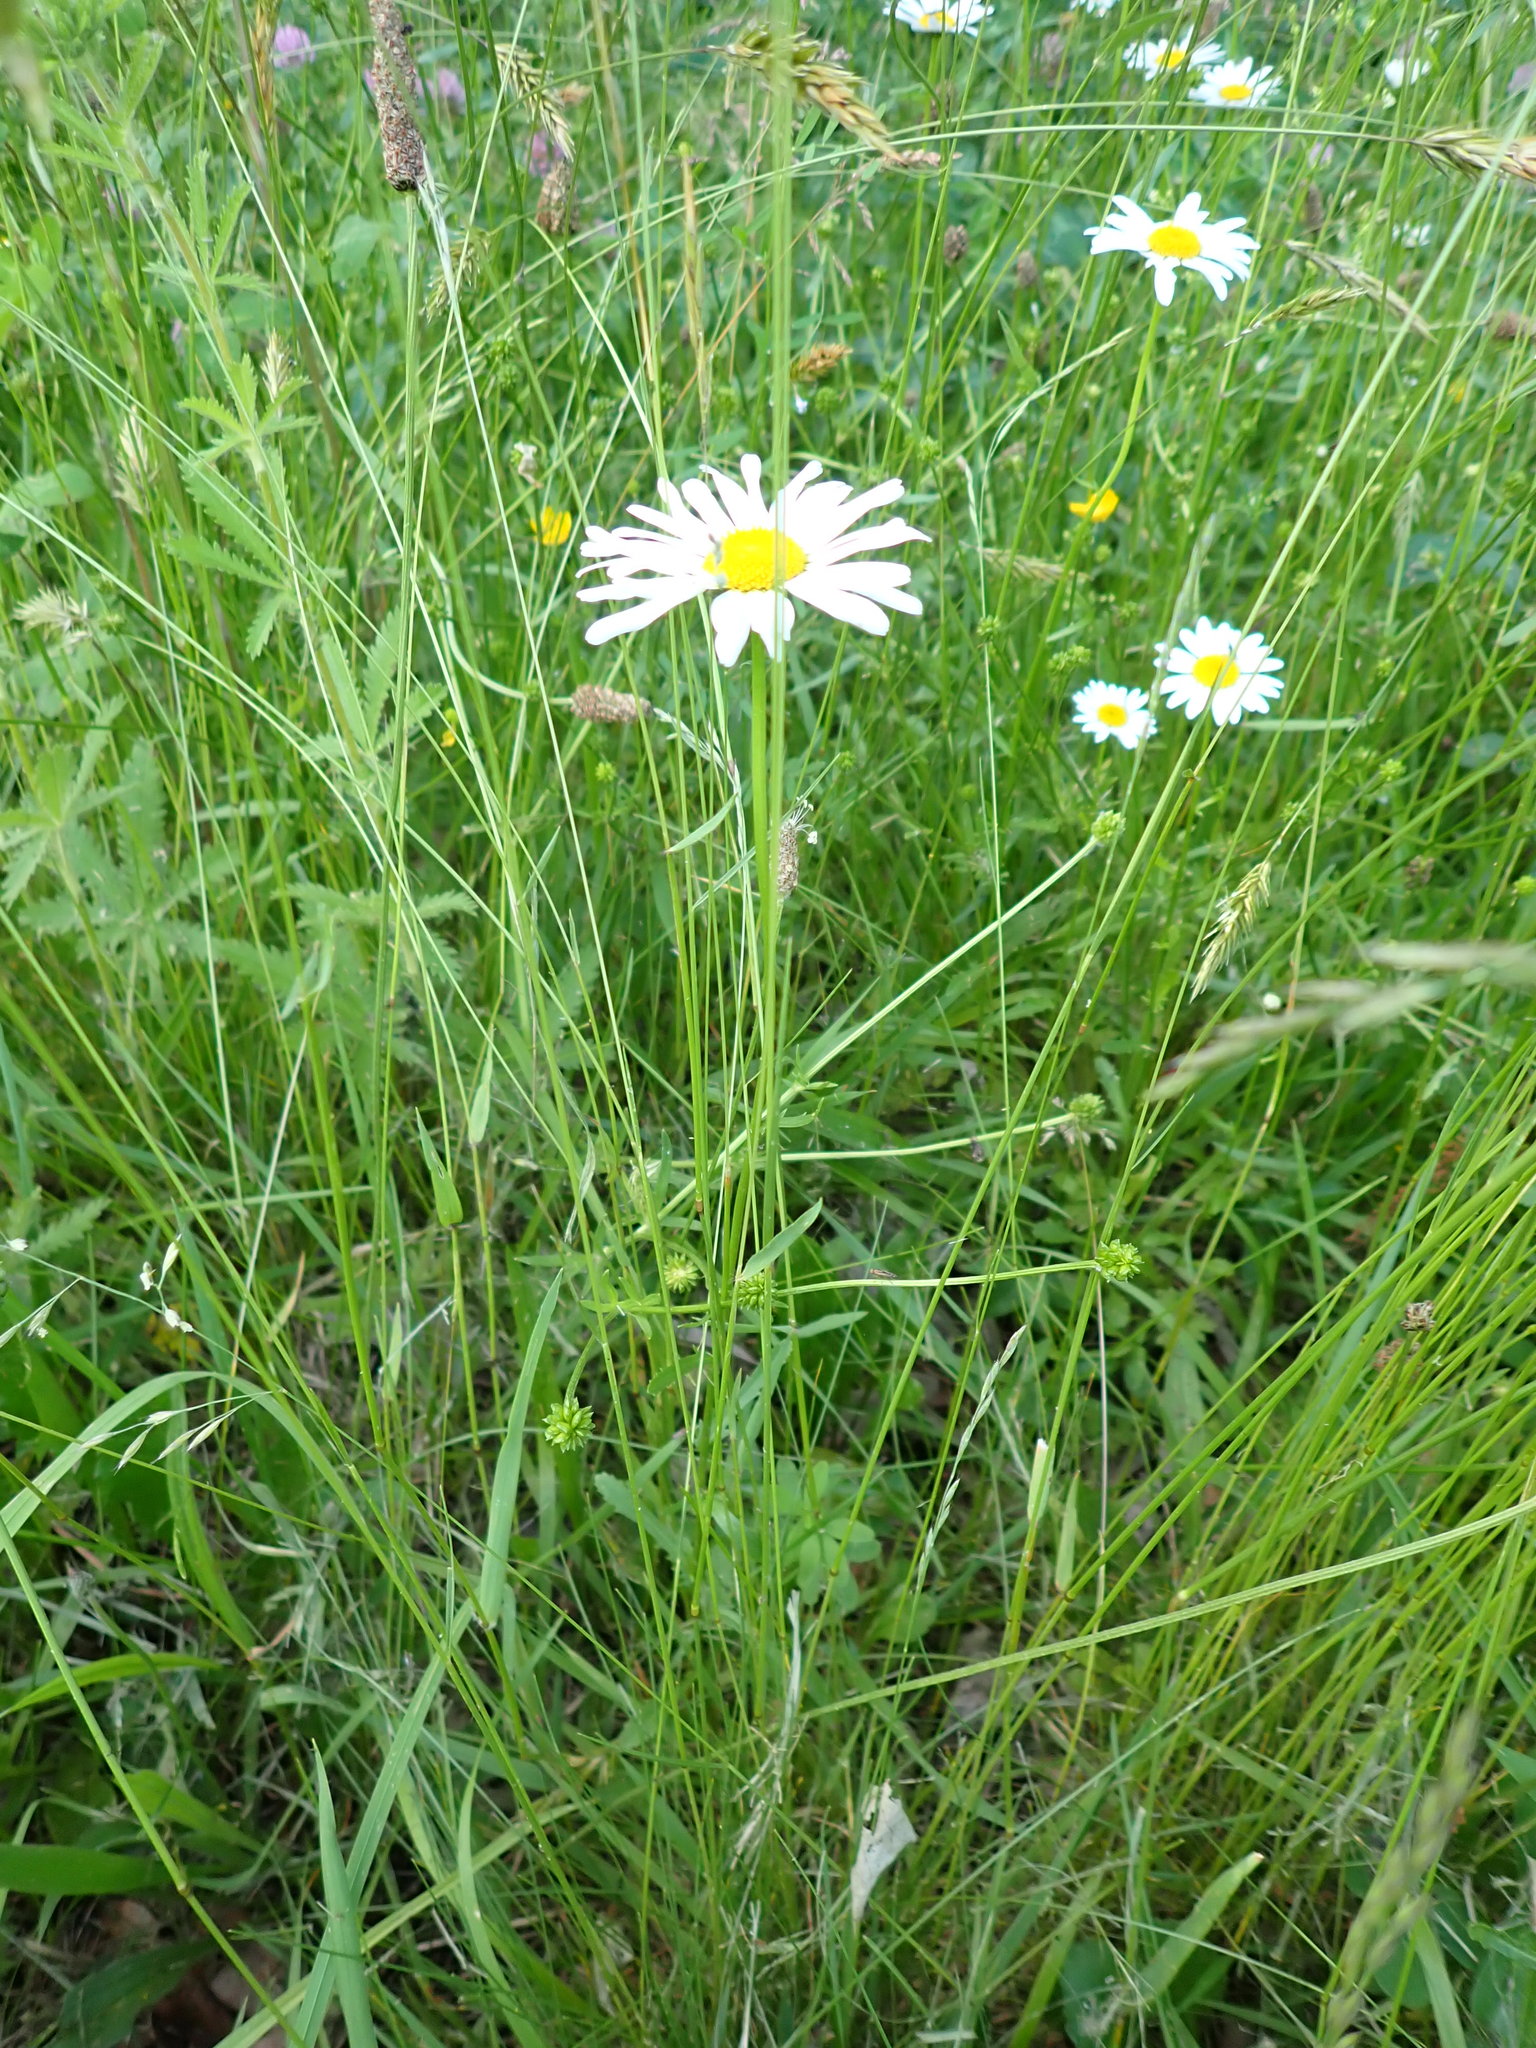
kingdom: Plantae
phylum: Tracheophyta
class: Magnoliopsida
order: Asterales
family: Asteraceae
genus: Leucanthemum
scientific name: Leucanthemum vulgare
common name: Oxeye daisy
